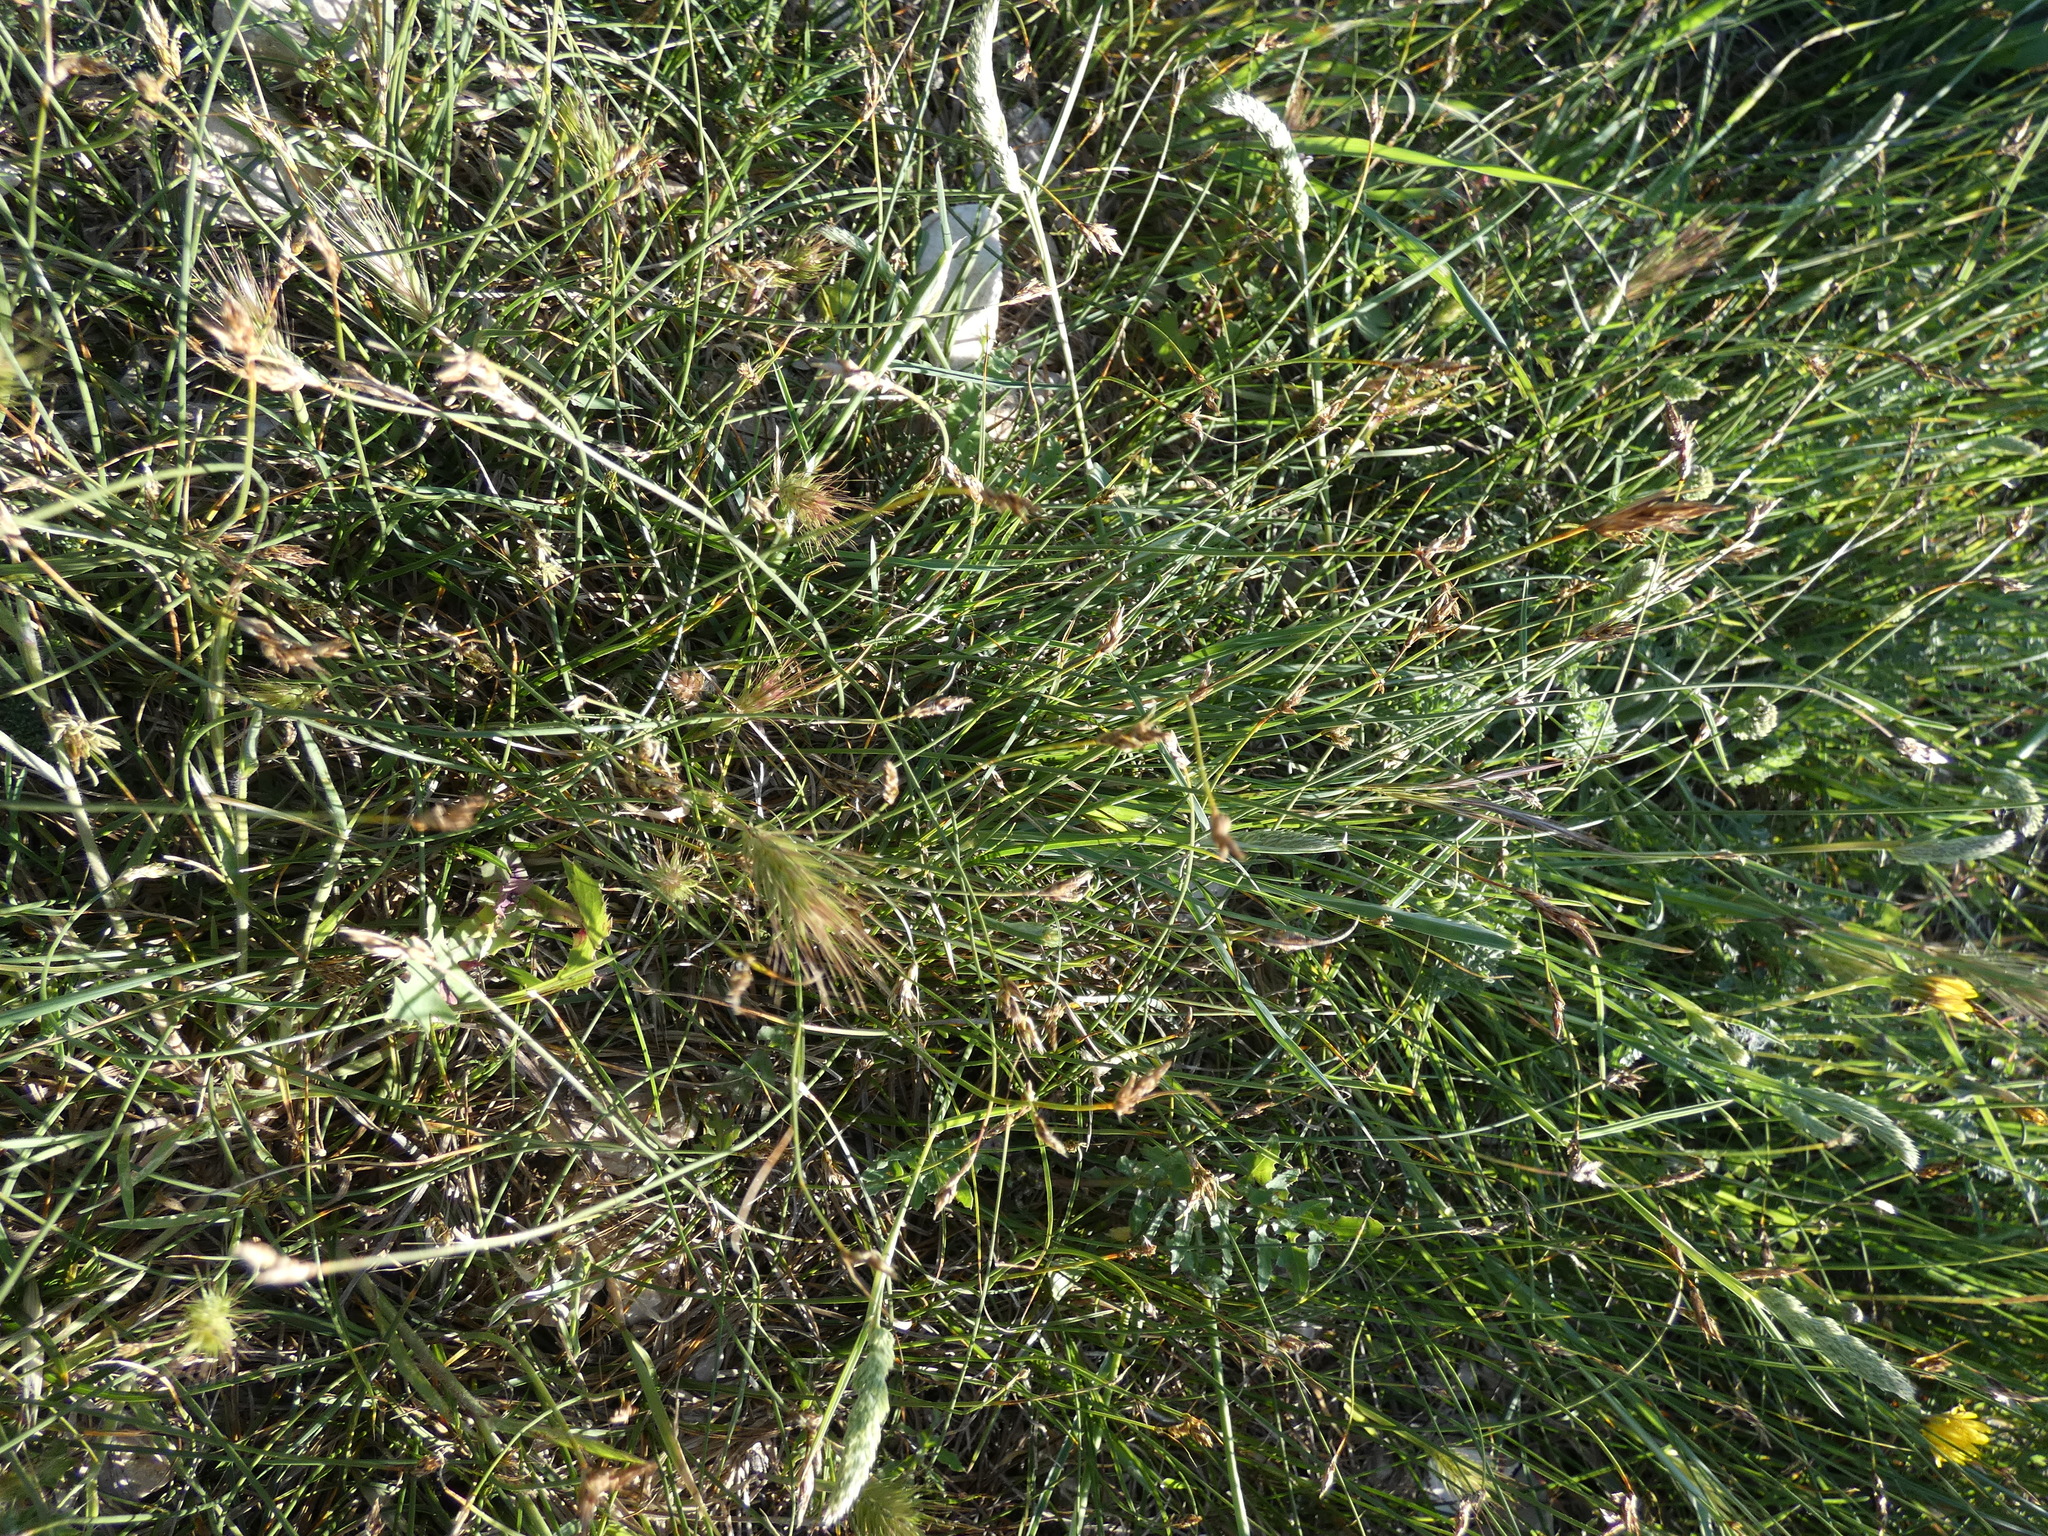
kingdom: Plantae
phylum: Tracheophyta
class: Liliopsida
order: Poales
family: Cyperaceae
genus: Carex
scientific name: Carex divisa
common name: Divided sedge
